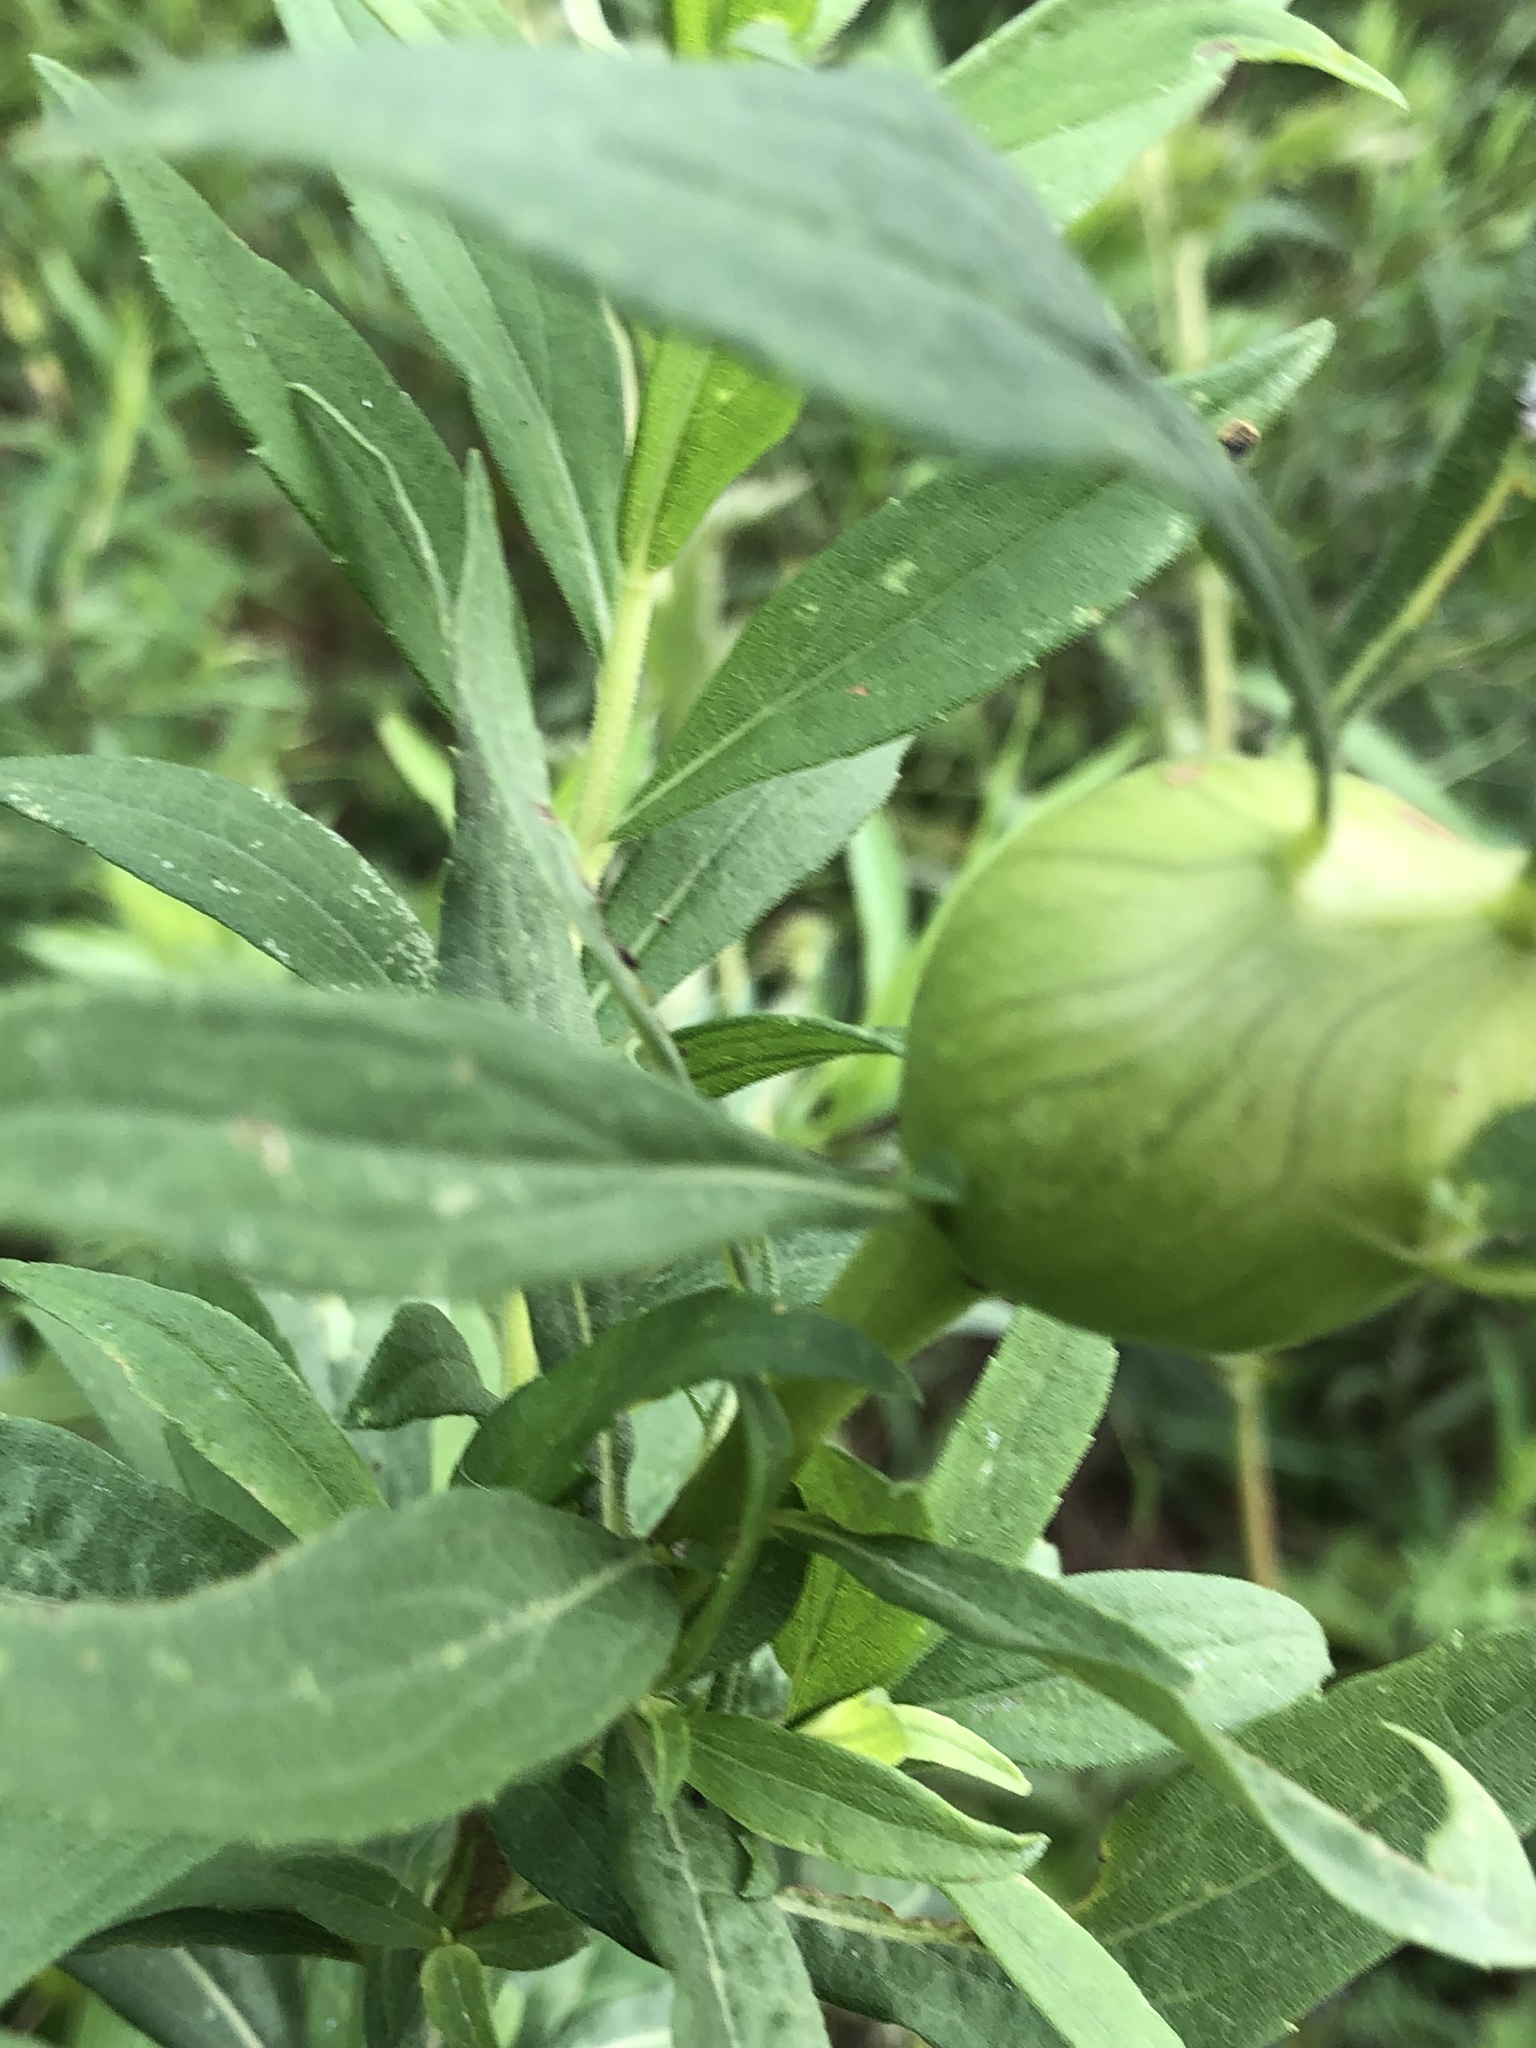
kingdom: Animalia
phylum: Arthropoda
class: Insecta
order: Diptera
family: Tephritidae
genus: Eurosta
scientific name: Eurosta solidaginis
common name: Goldenrod gall fly
